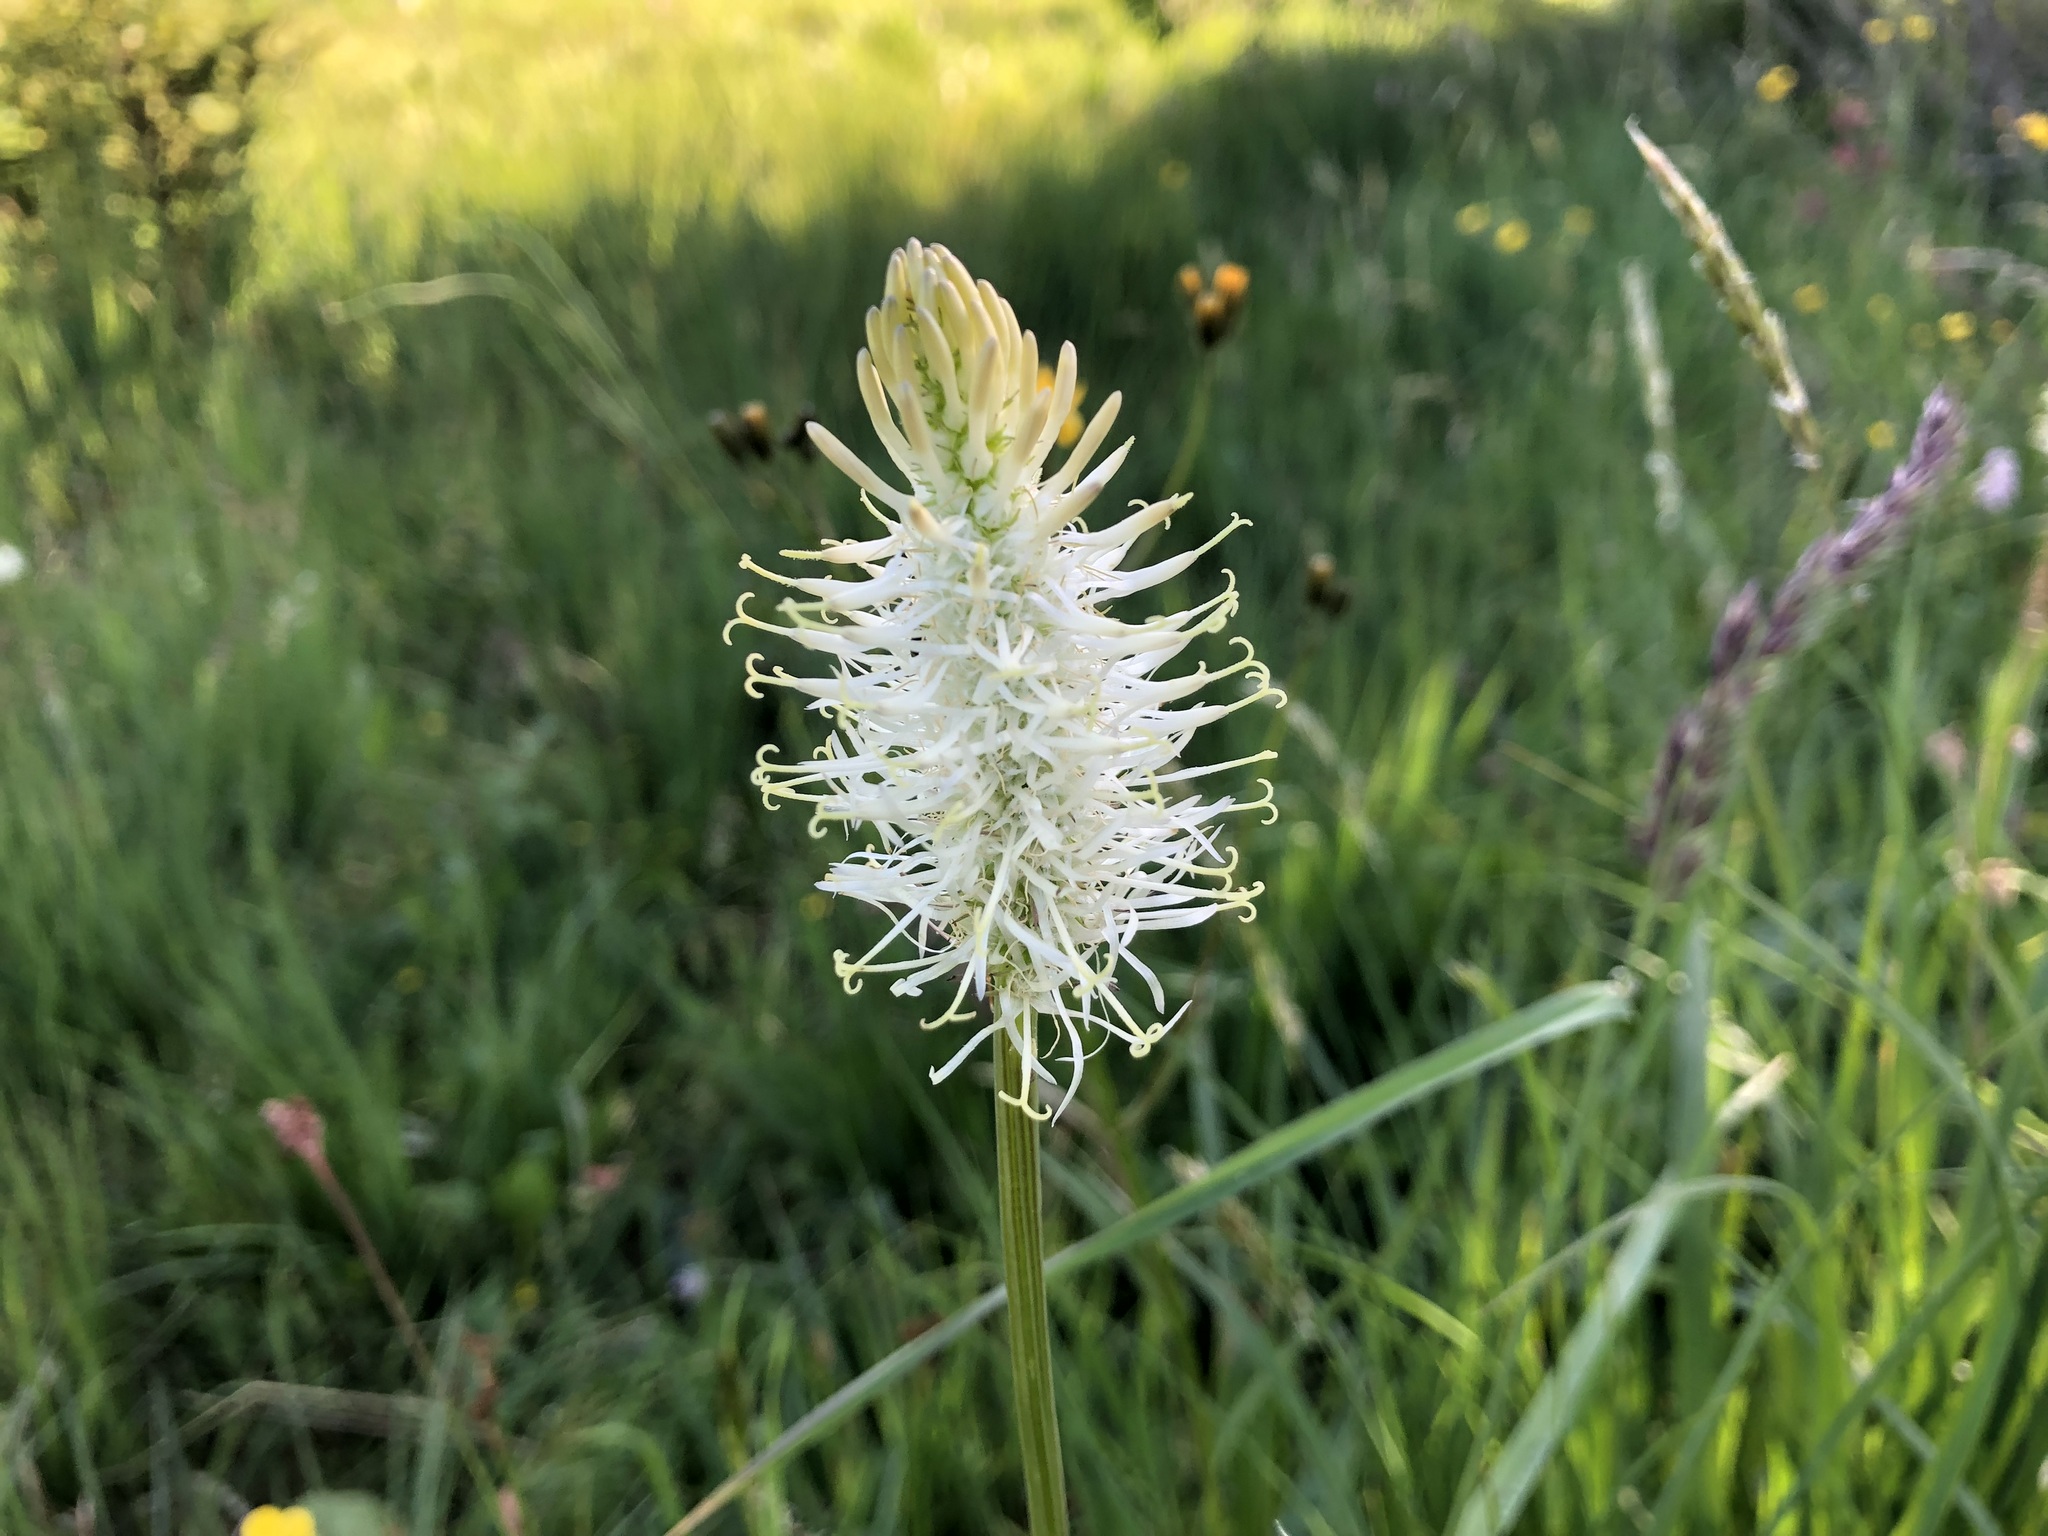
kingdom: Plantae
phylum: Tracheophyta
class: Magnoliopsida
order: Asterales
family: Campanulaceae
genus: Phyteuma
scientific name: Phyteuma spicatum
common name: Spiked rampion
